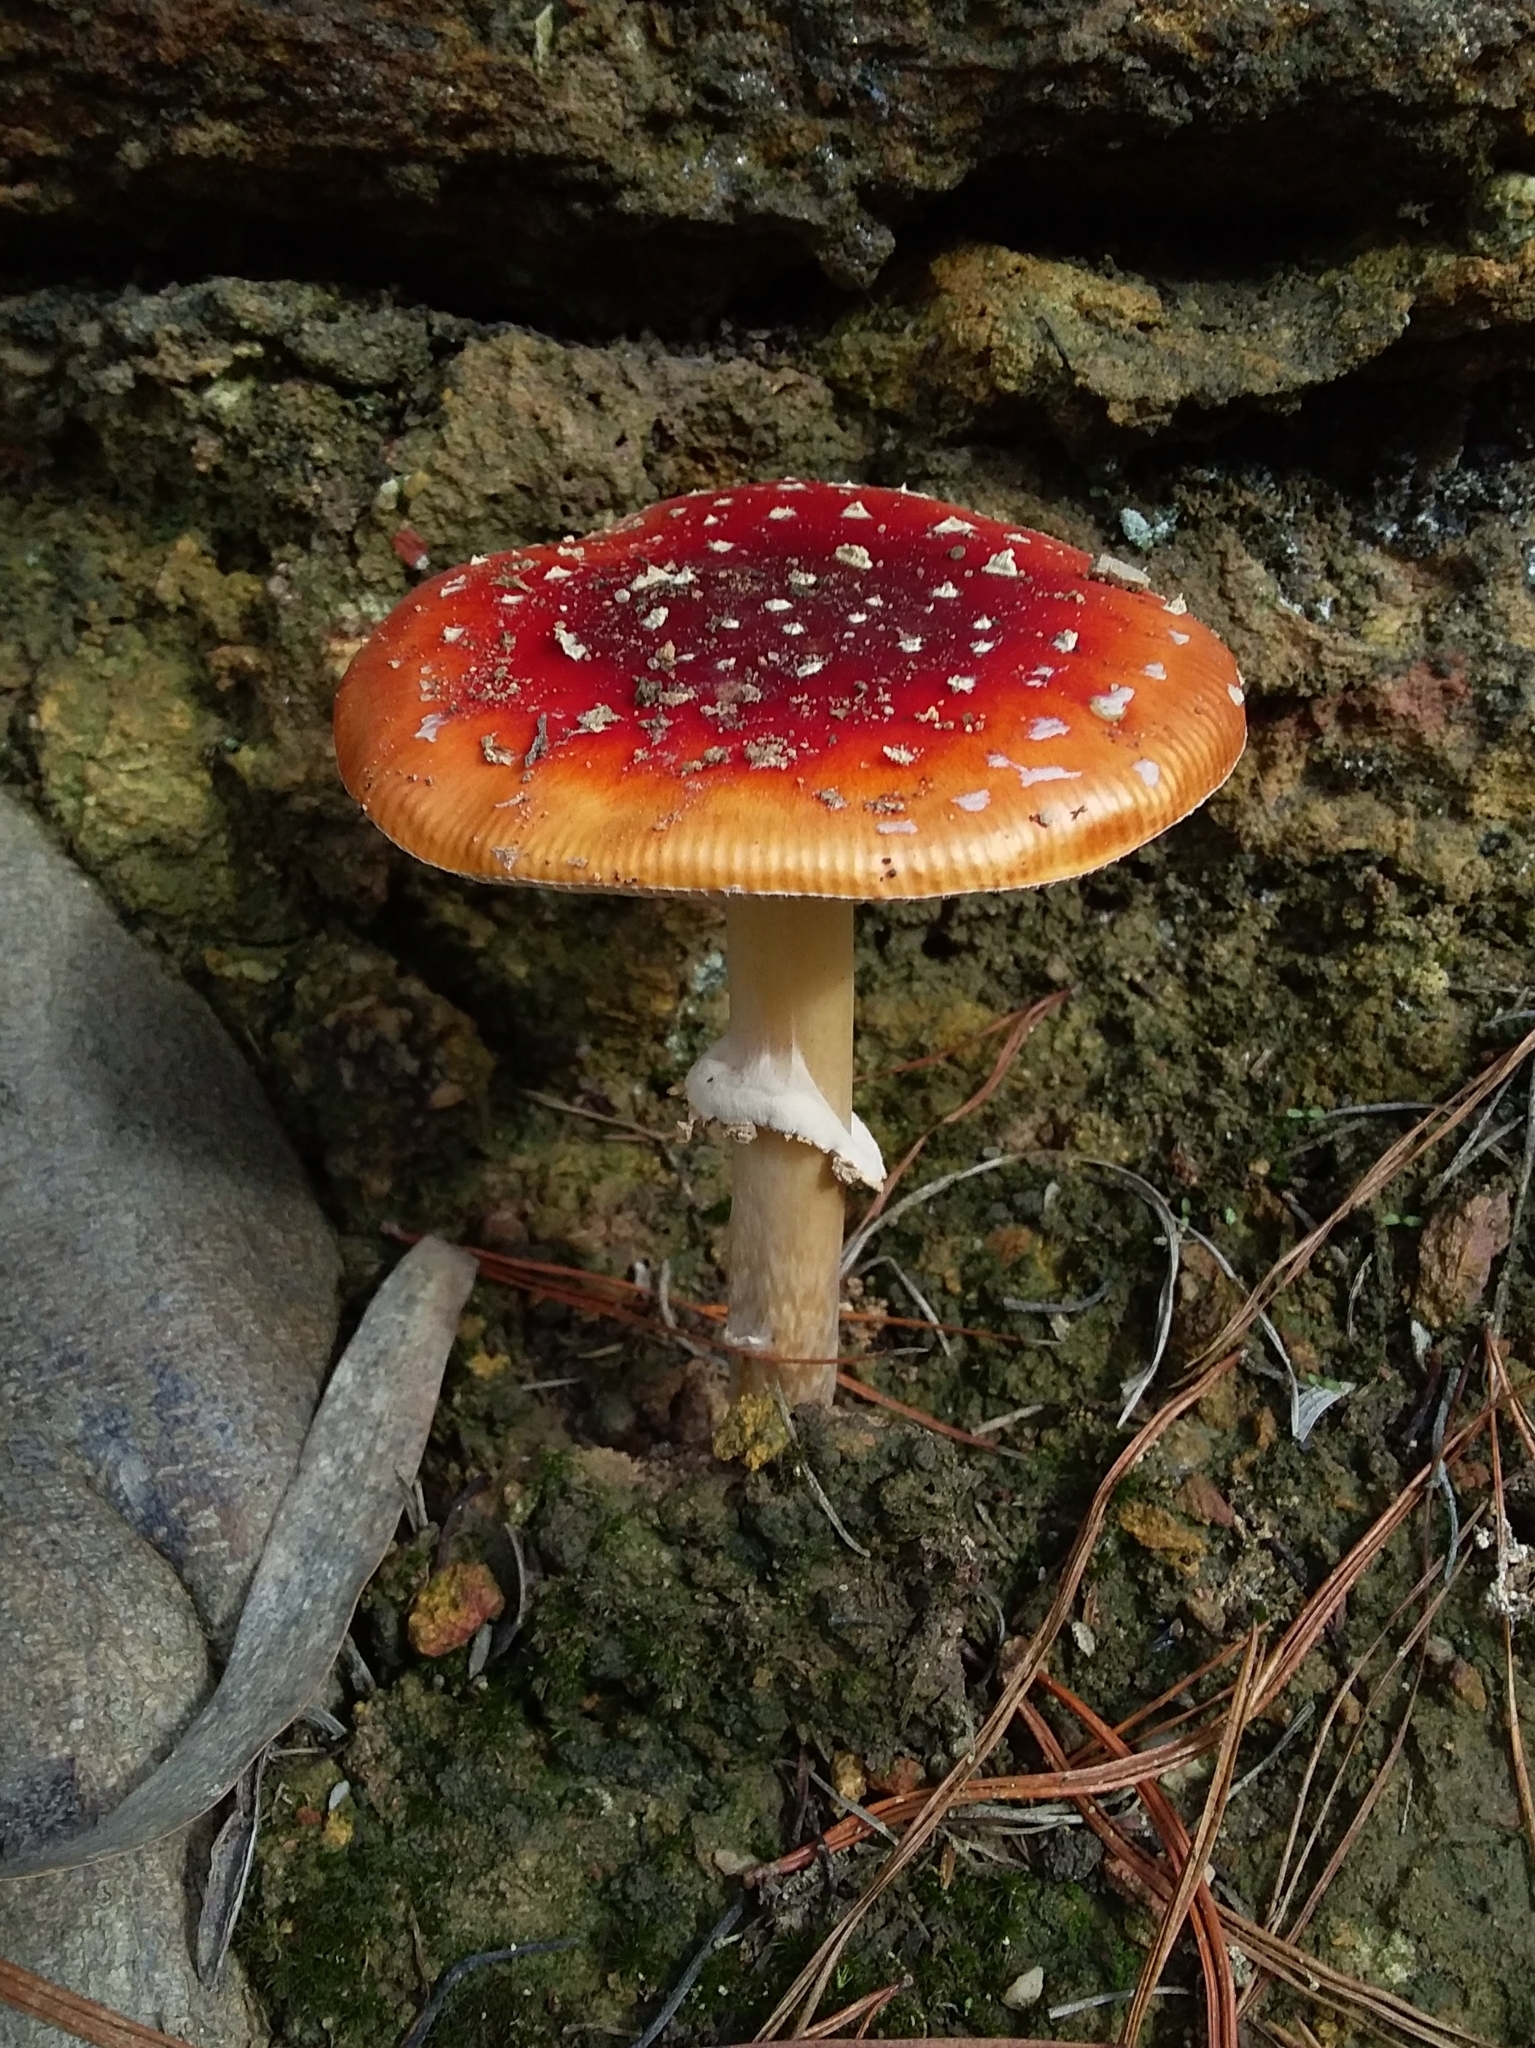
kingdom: Fungi
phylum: Basidiomycota
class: Agaricomycetes
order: Agaricales
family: Amanitaceae
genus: Amanita
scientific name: Amanita muscaria
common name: Fly agaric
